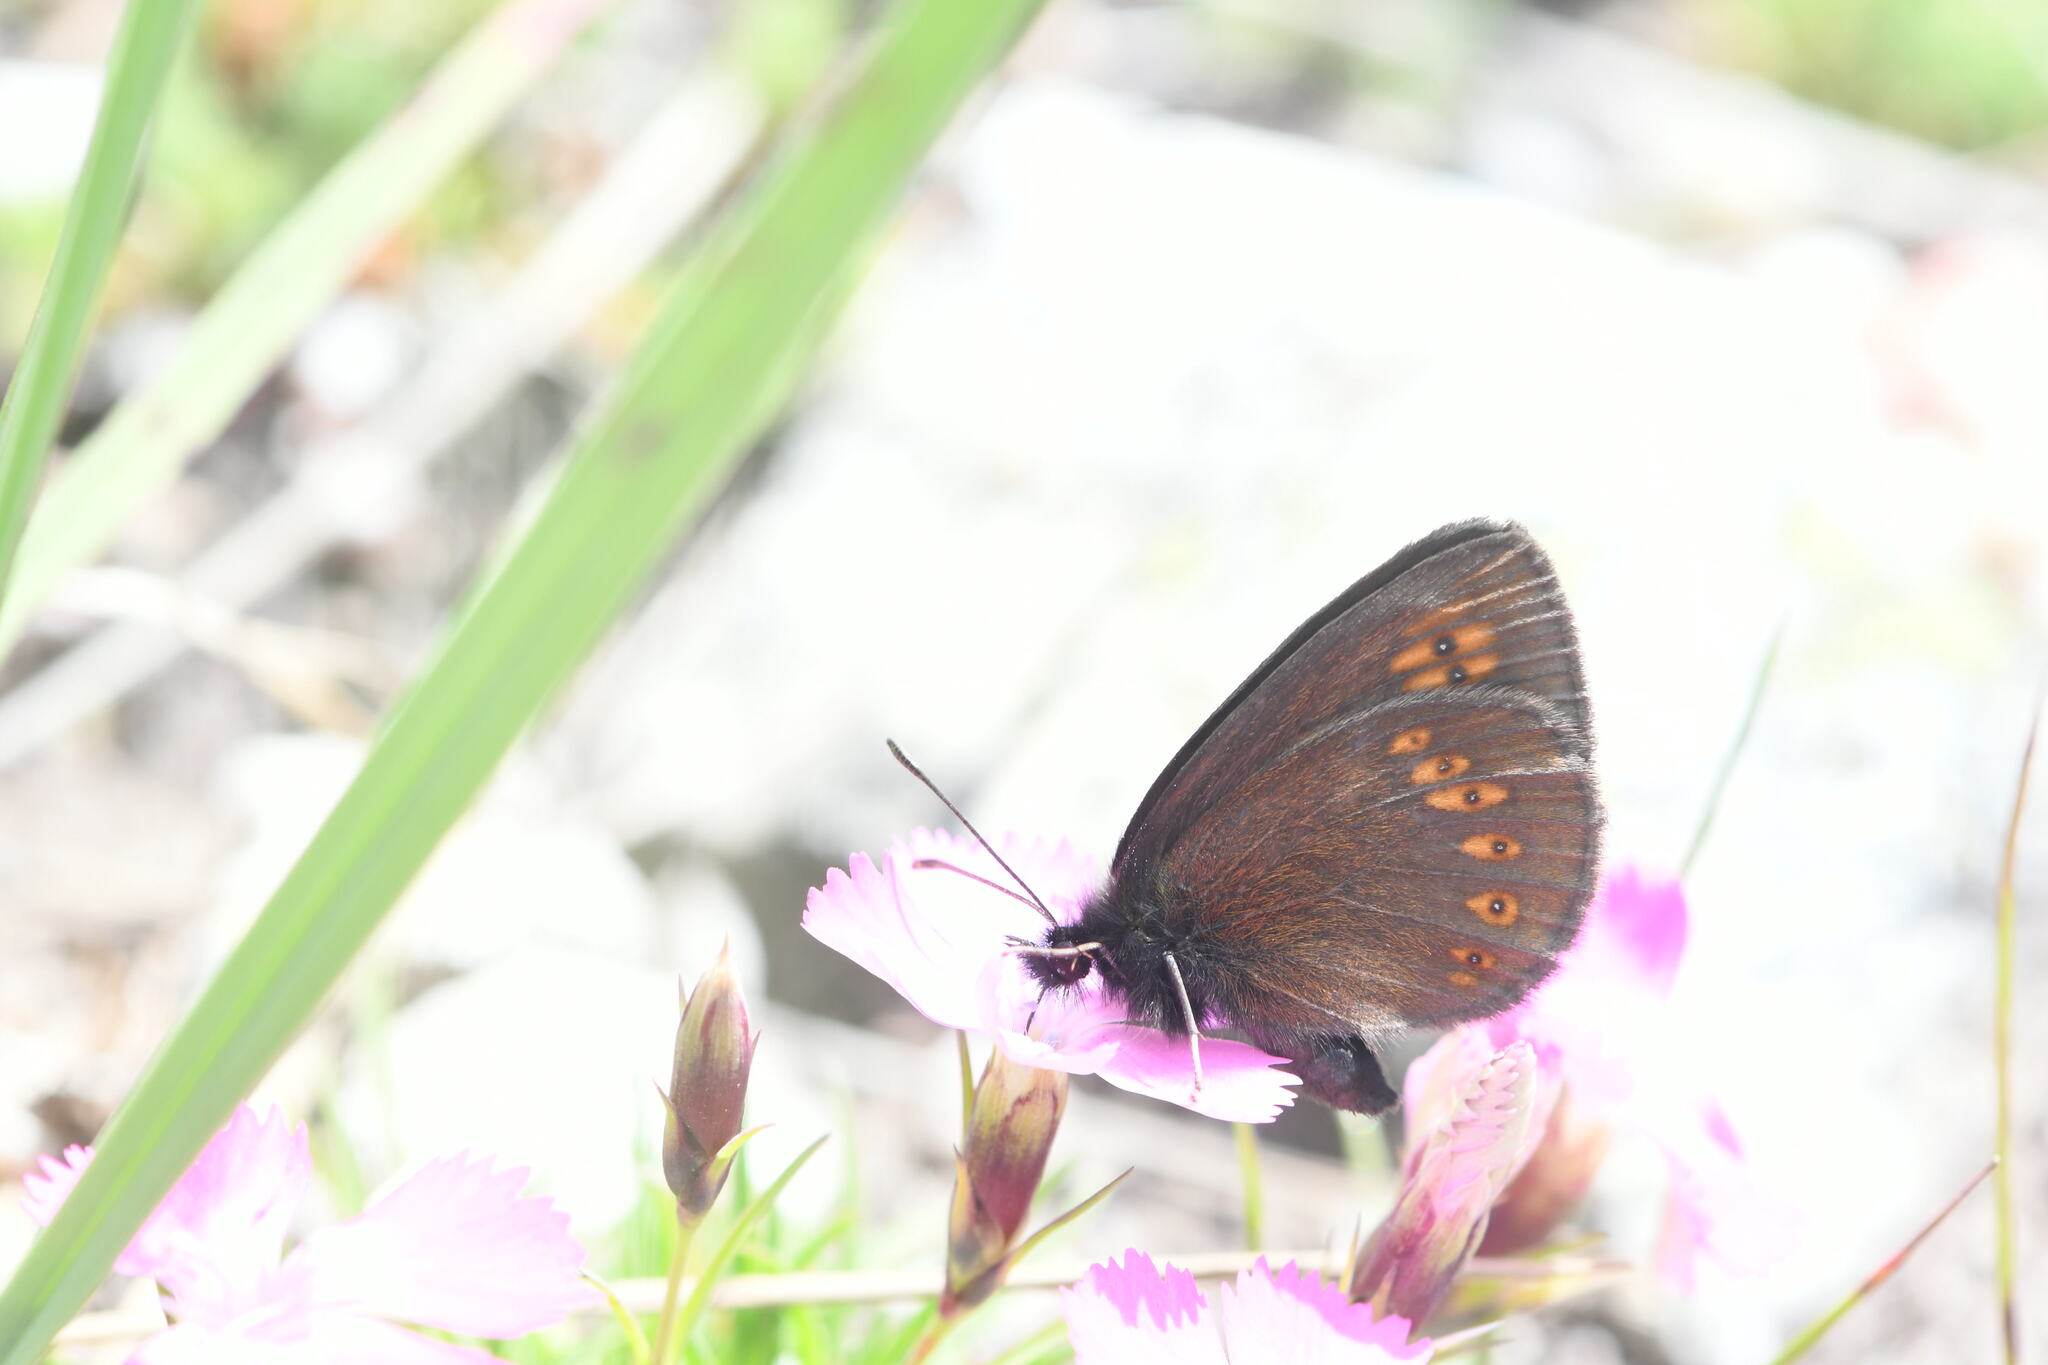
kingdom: Animalia
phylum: Arthropoda
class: Insecta
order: Lepidoptera
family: Nymphalidae
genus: Erebia
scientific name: Erebia alberganus
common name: Almond-eyed ringlet
